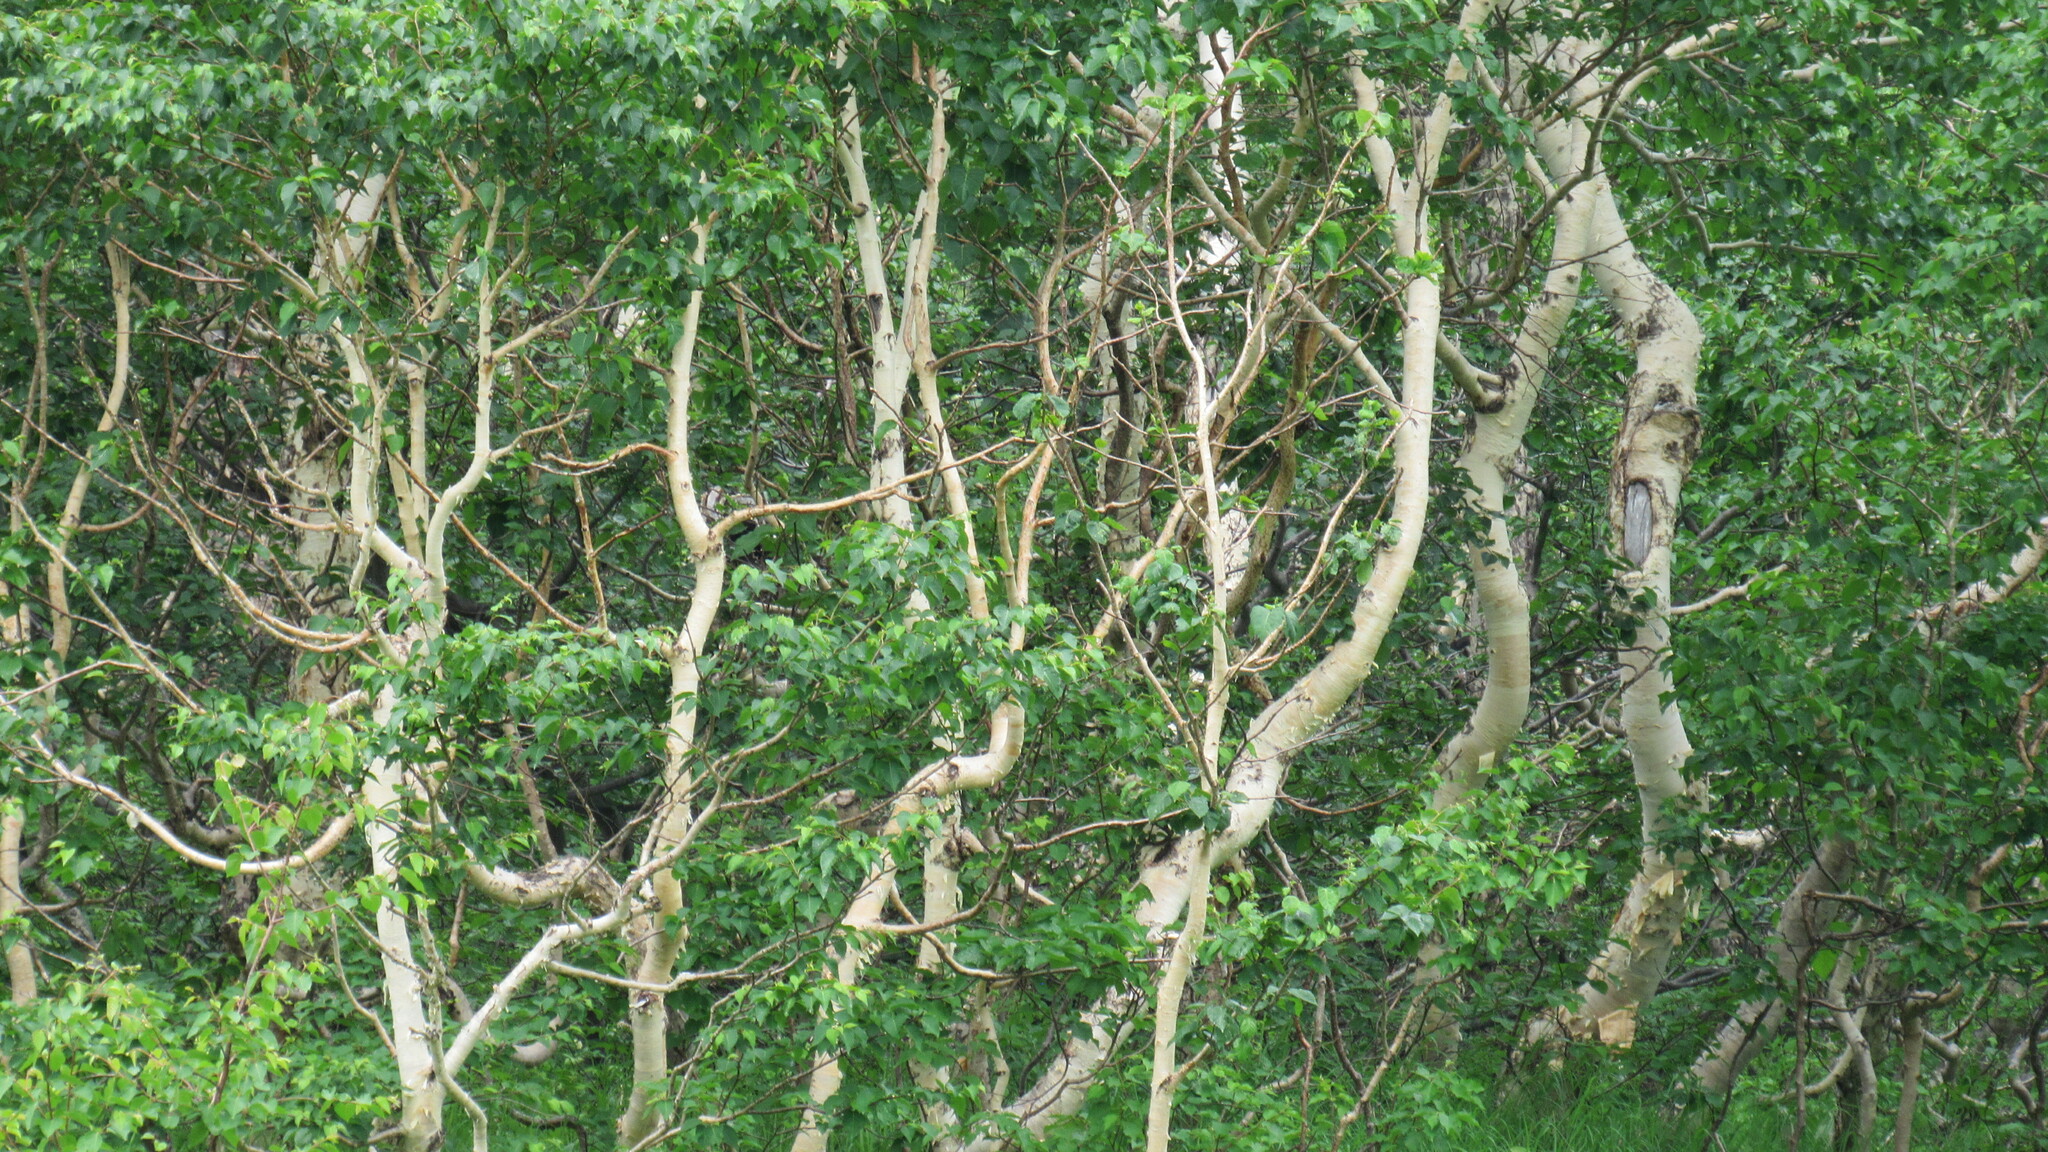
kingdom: Plantae
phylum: Tracheophyta
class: Magnoliopsida
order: Fagales
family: Betulaceae
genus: Betula
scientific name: Betula ermanii
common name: Erman's birch
